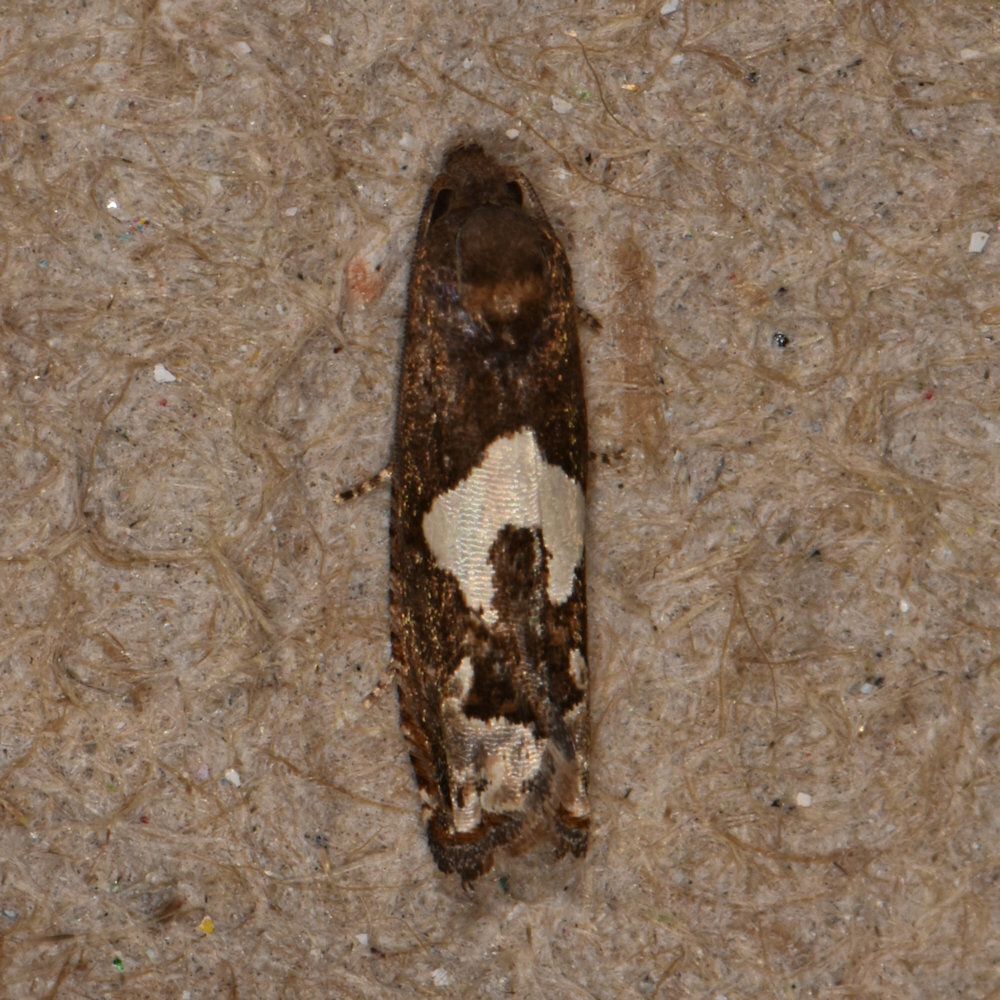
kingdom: Animalia
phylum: Arthropoda
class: Insecta
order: Lepidoptera
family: Tortricidae
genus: Epiblema
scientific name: Epiblema otiosana
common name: Bidens borer moth
